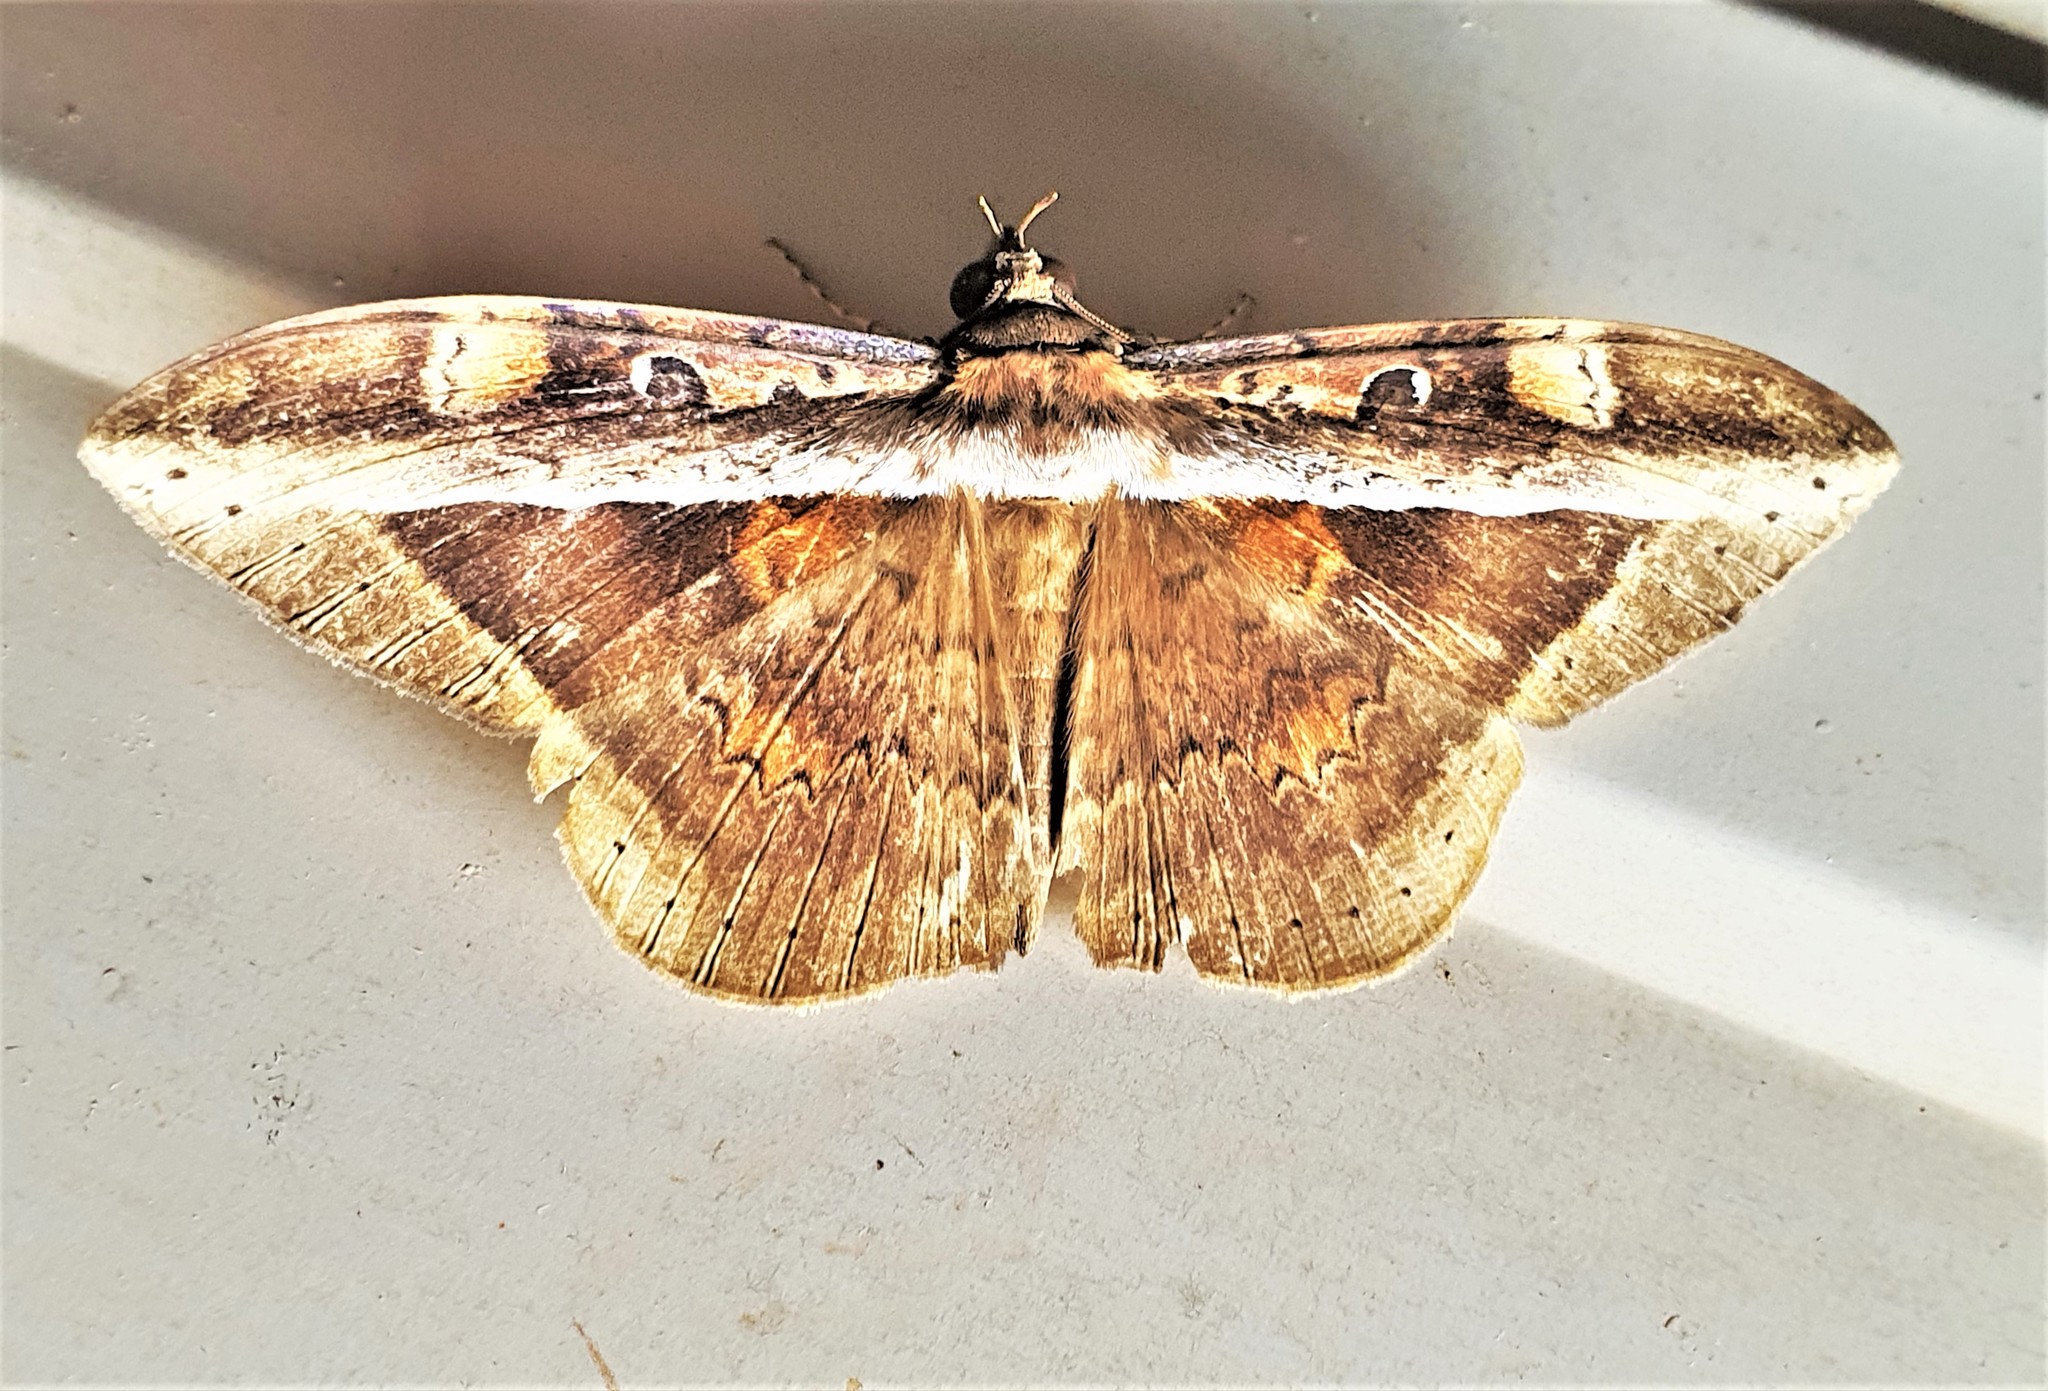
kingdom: Animalia
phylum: Arthropoda
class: Insecta
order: Lepidoptera
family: Erebidae
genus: Hemeroblemma
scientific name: Hemeroblemma opigena
